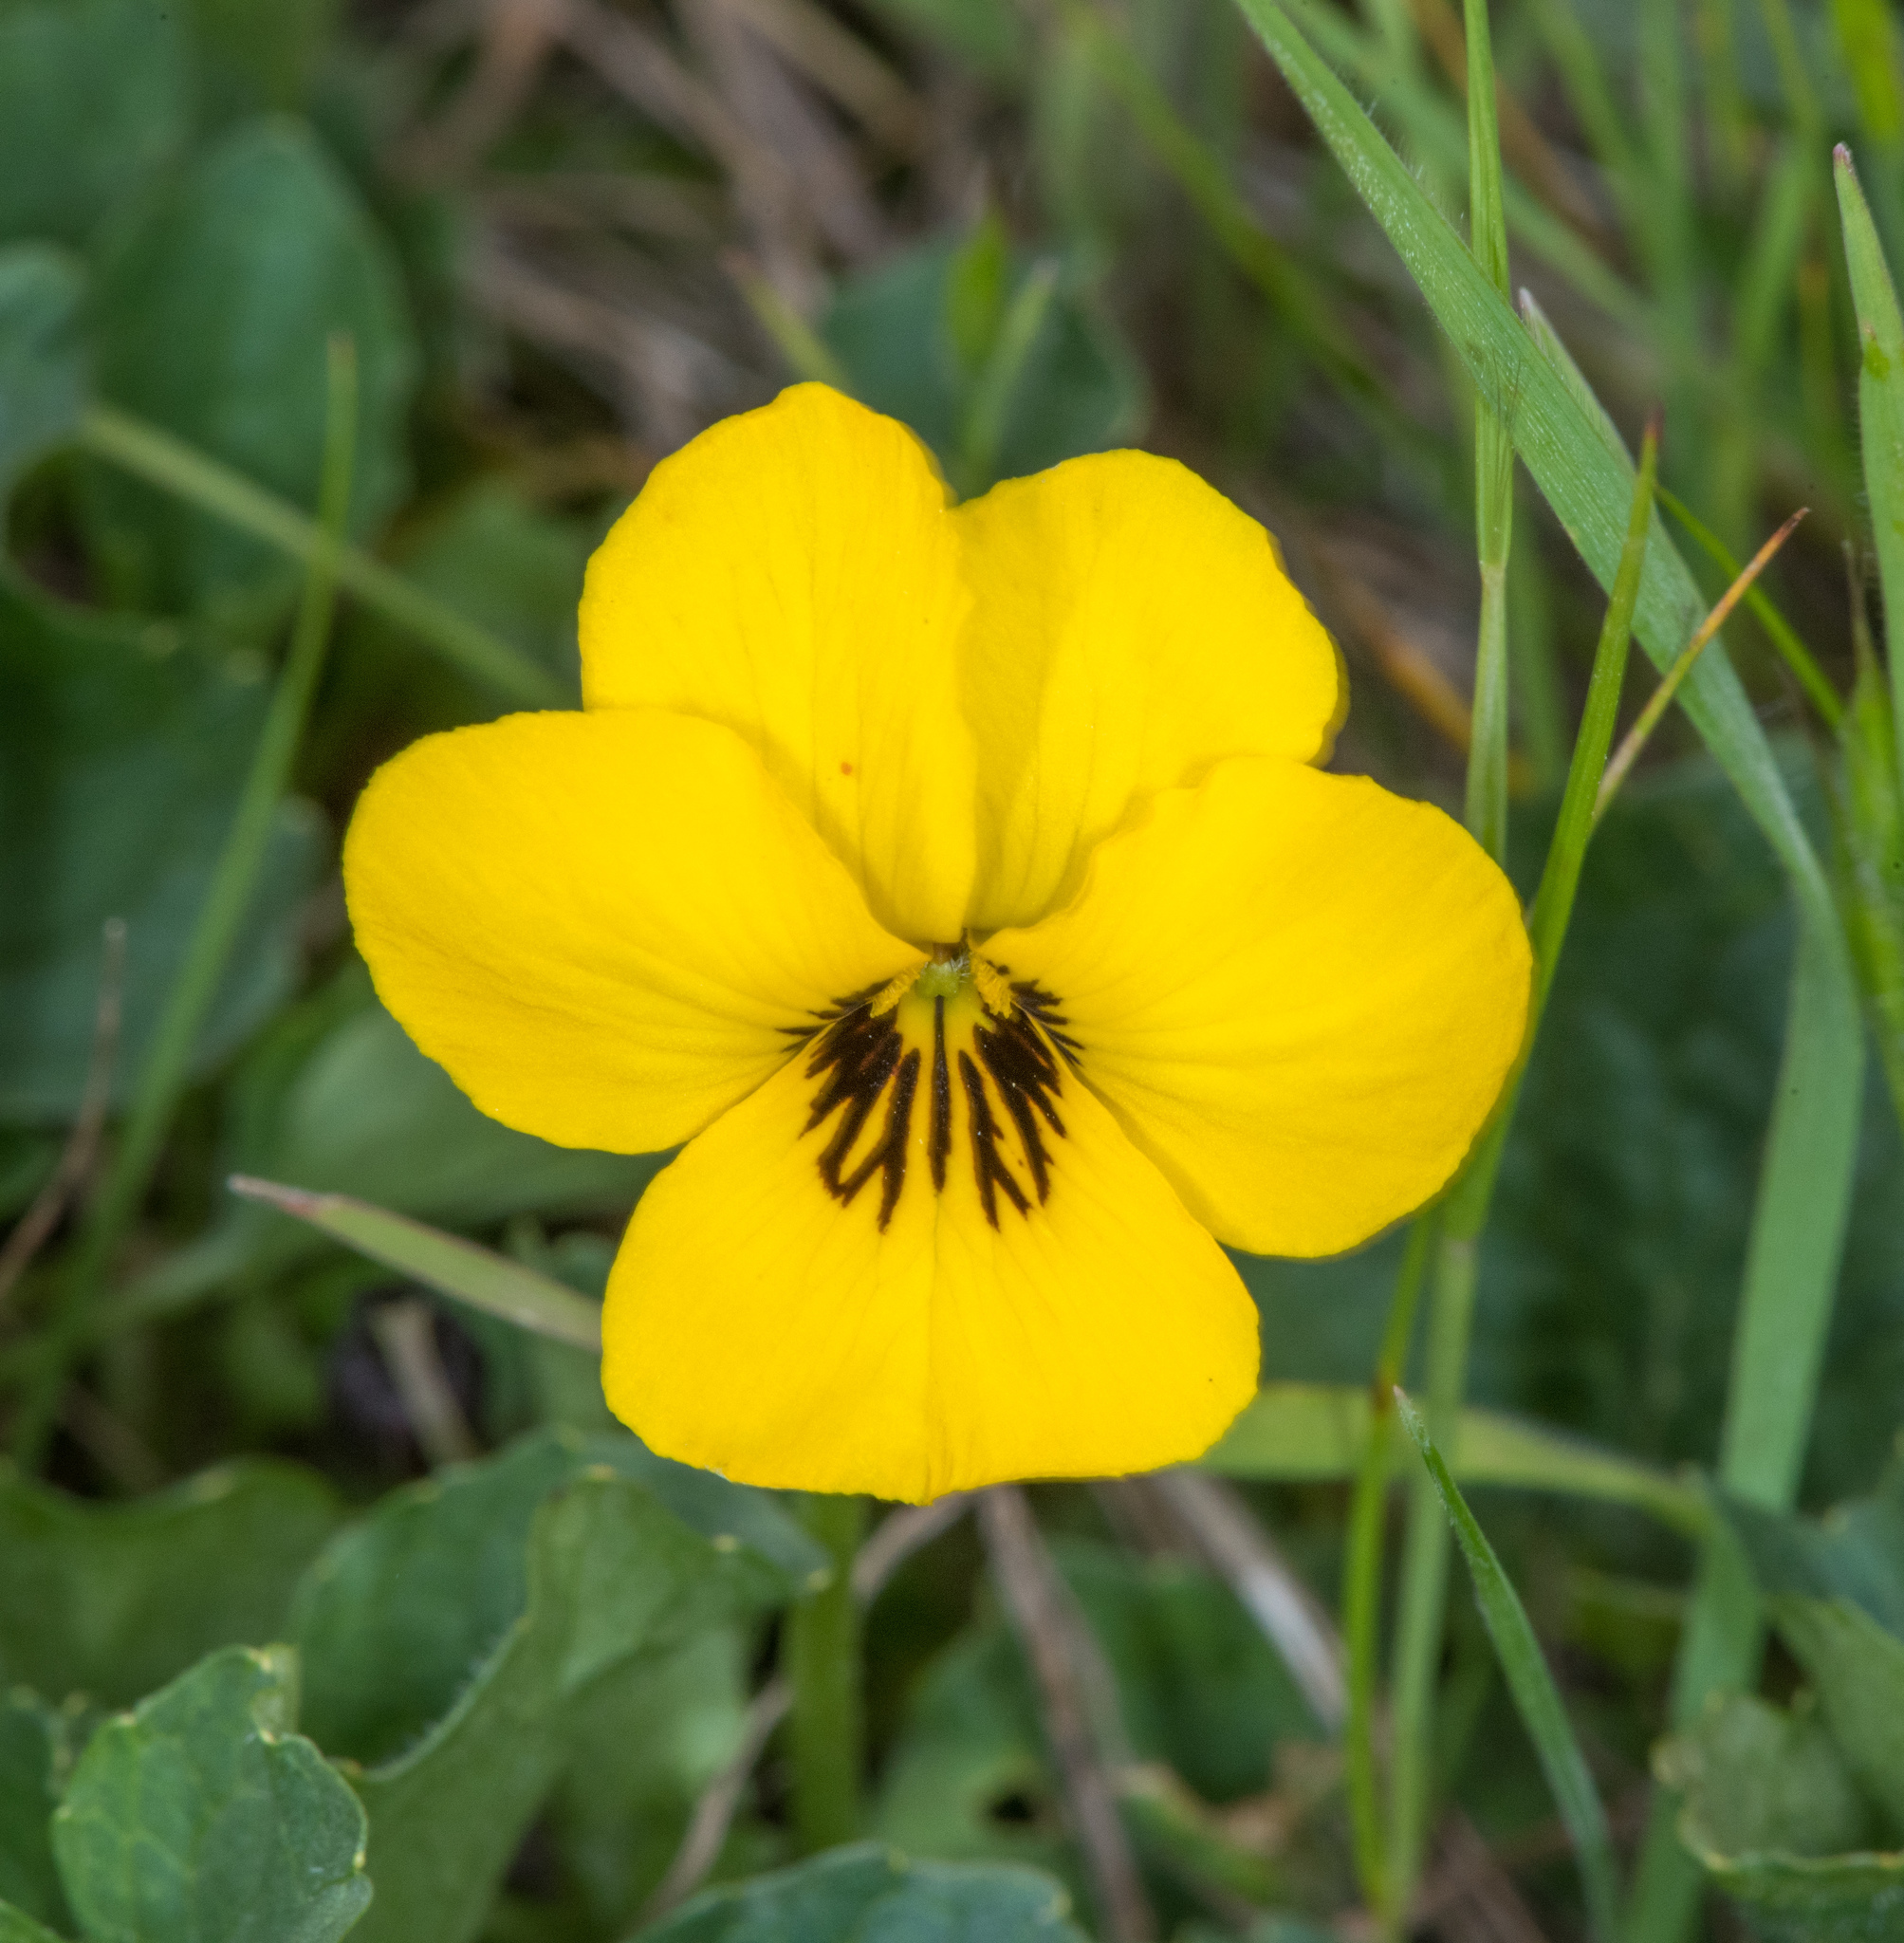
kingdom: Plantae
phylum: Tracheophyta
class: Magnoliopsida
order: Malpighiales
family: Violaceae
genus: Viola
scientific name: Viola pedunculata
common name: California golden violet
